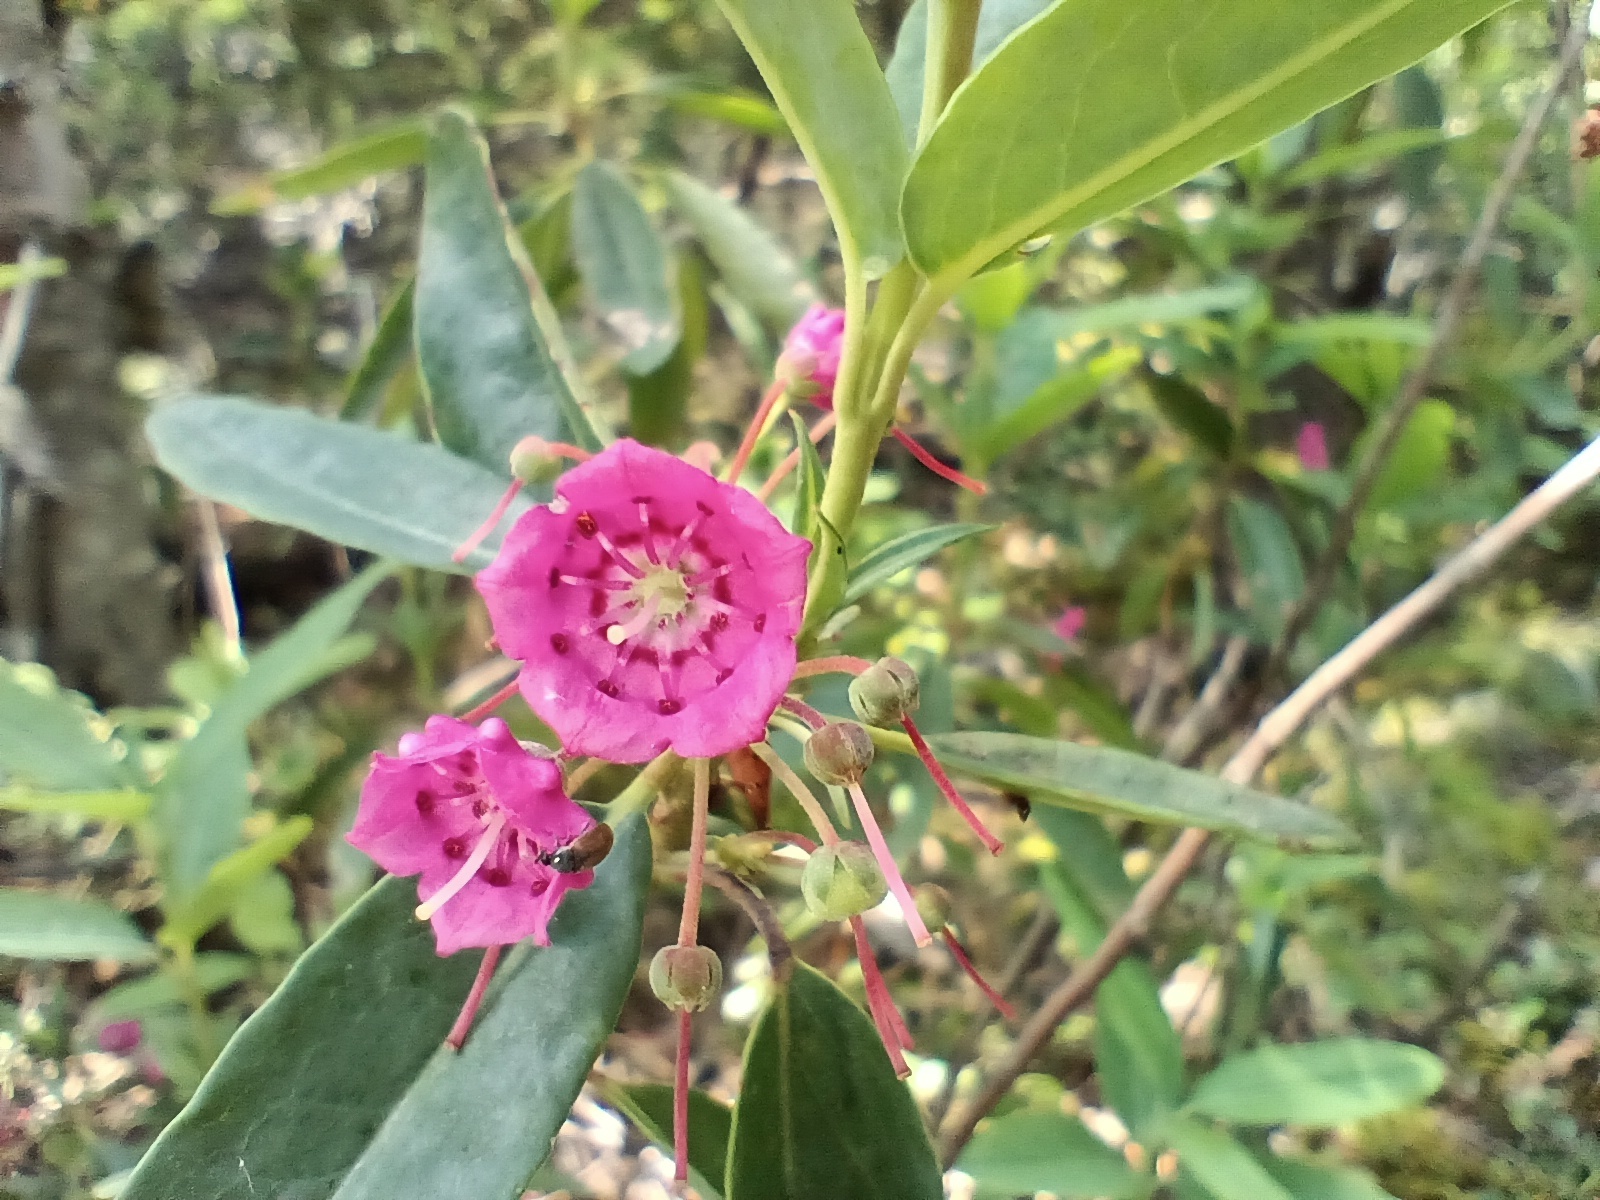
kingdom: Plantae
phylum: Tracheophyta
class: Magnoliopsida
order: Ericales
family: Ericaceae
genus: Kalmia
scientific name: Kalmia angustifolia
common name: Sheep-laurel
